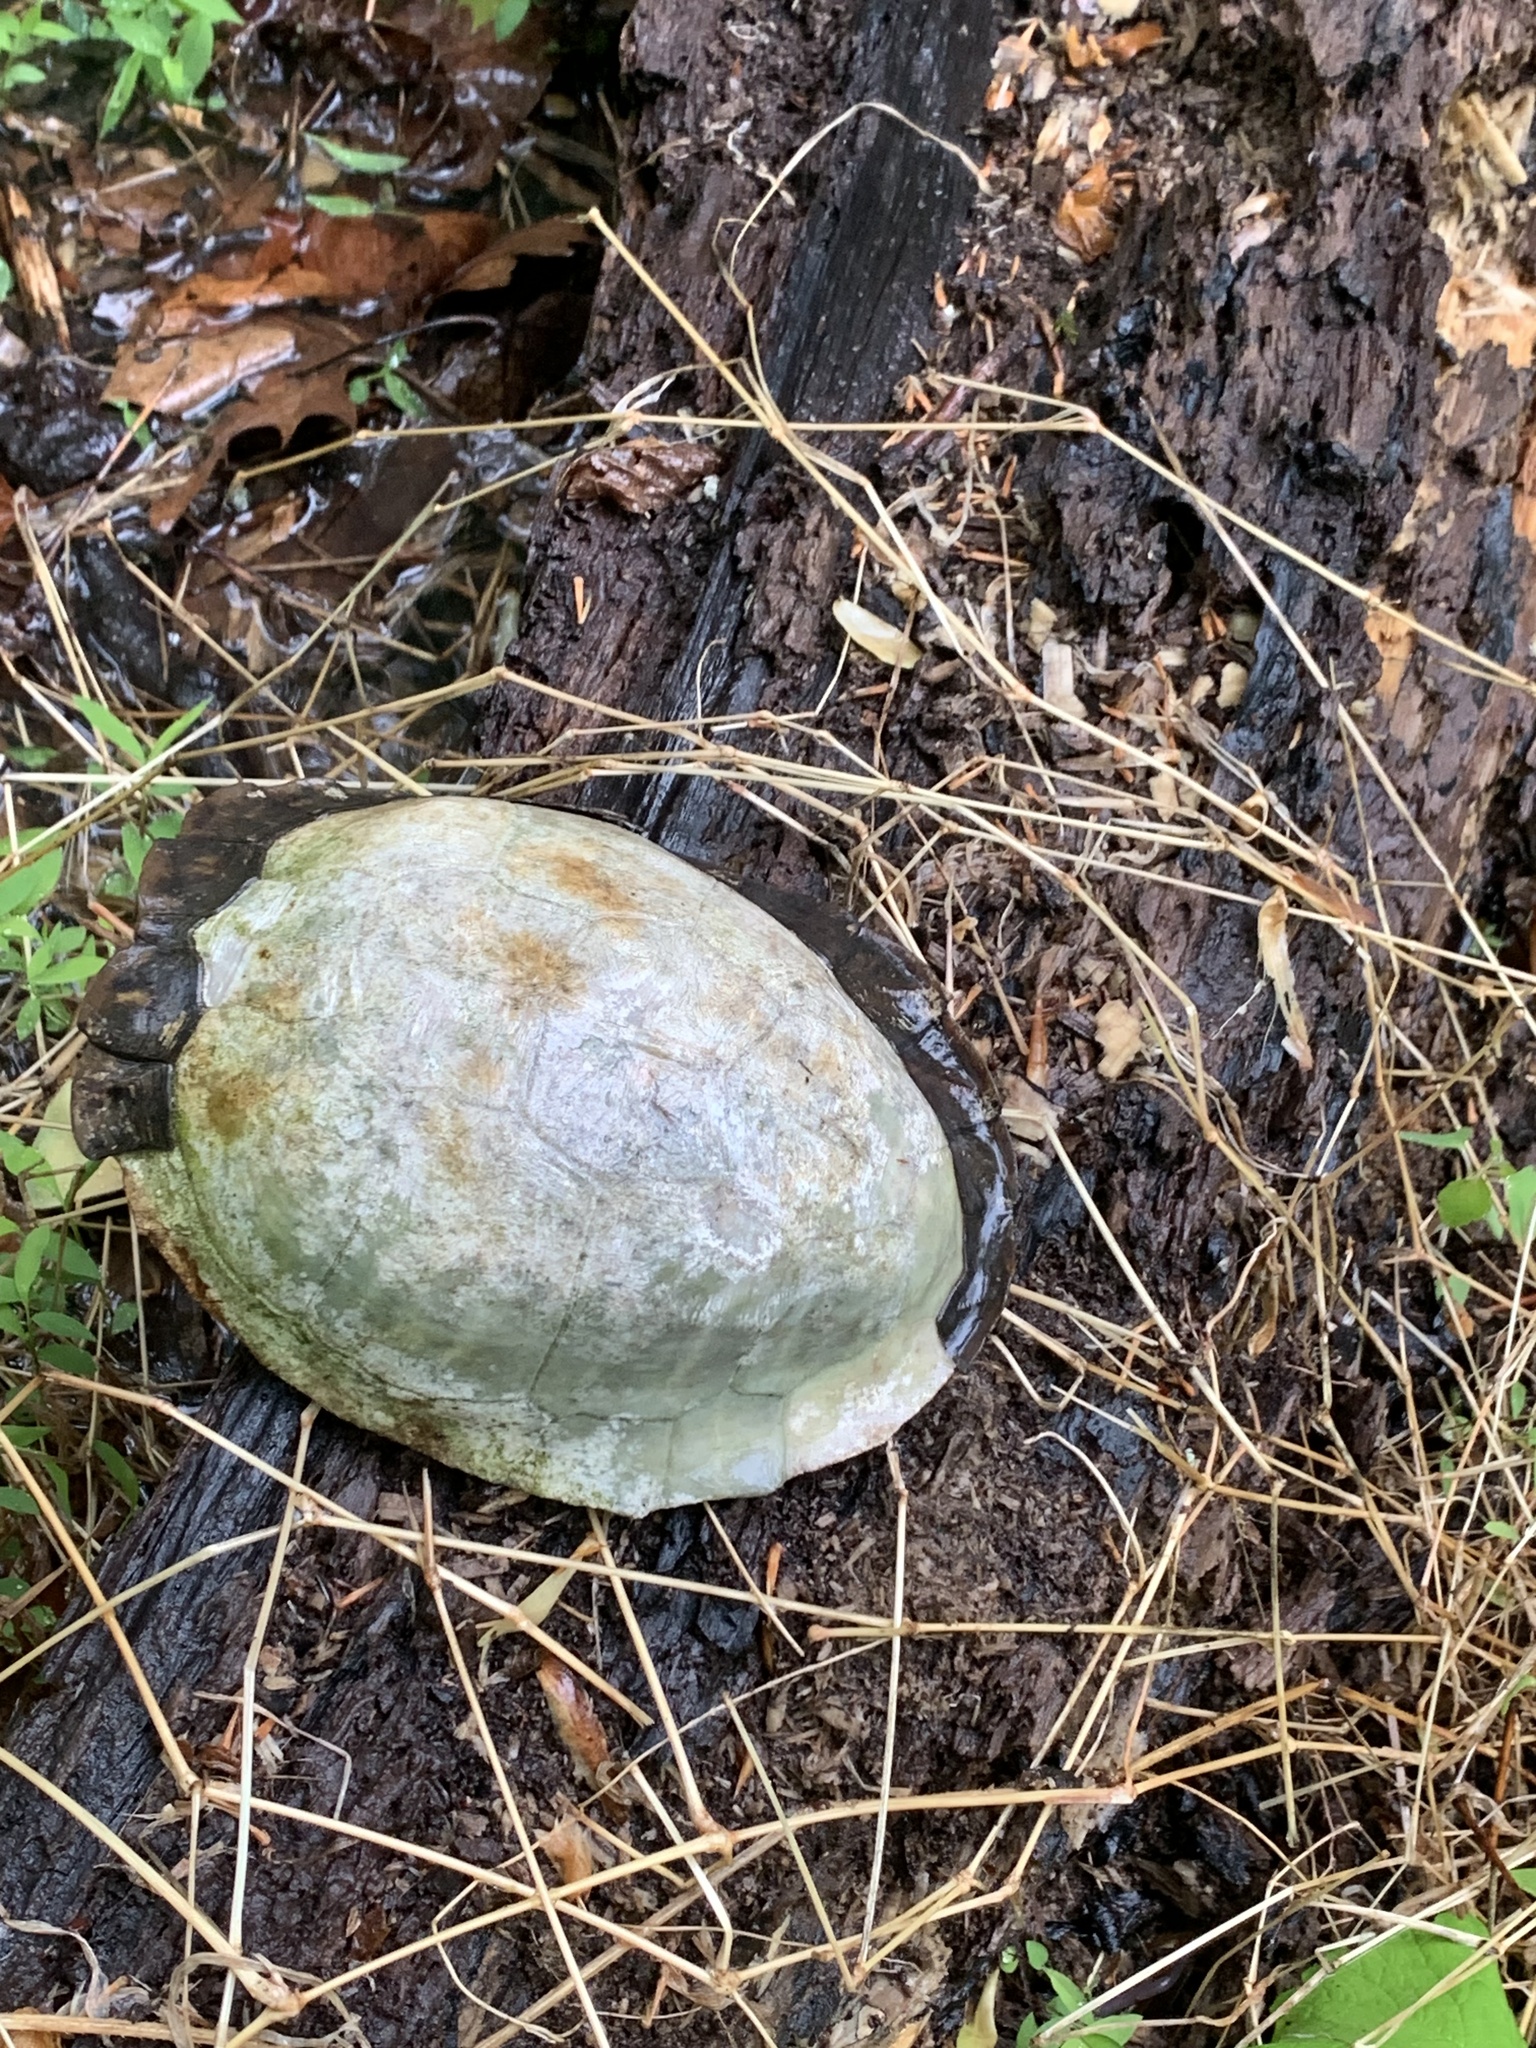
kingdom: Animalia
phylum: Chordata
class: Testudines
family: Emydidae
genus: Terrapene
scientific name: Terrapene carolina
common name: Common box turtle
